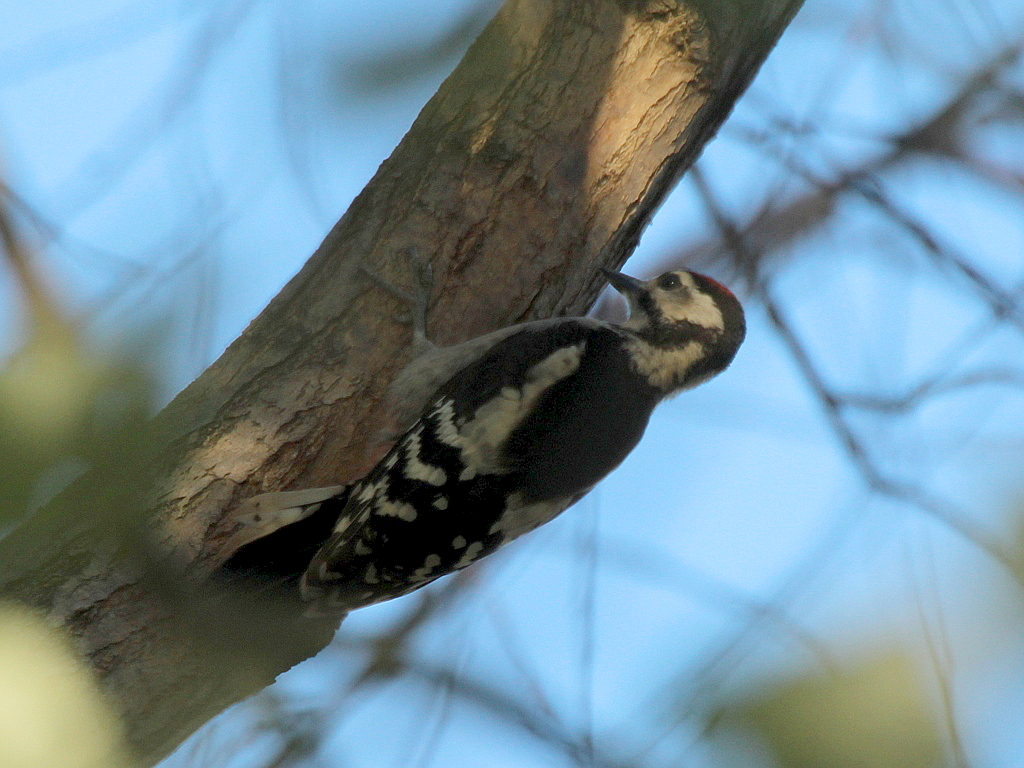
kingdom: Animalia
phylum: Chordata
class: Aves
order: Piciformes
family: Picidae
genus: Dendrocopos
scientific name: Dendrocopos major
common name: Great spotted woodpecker
